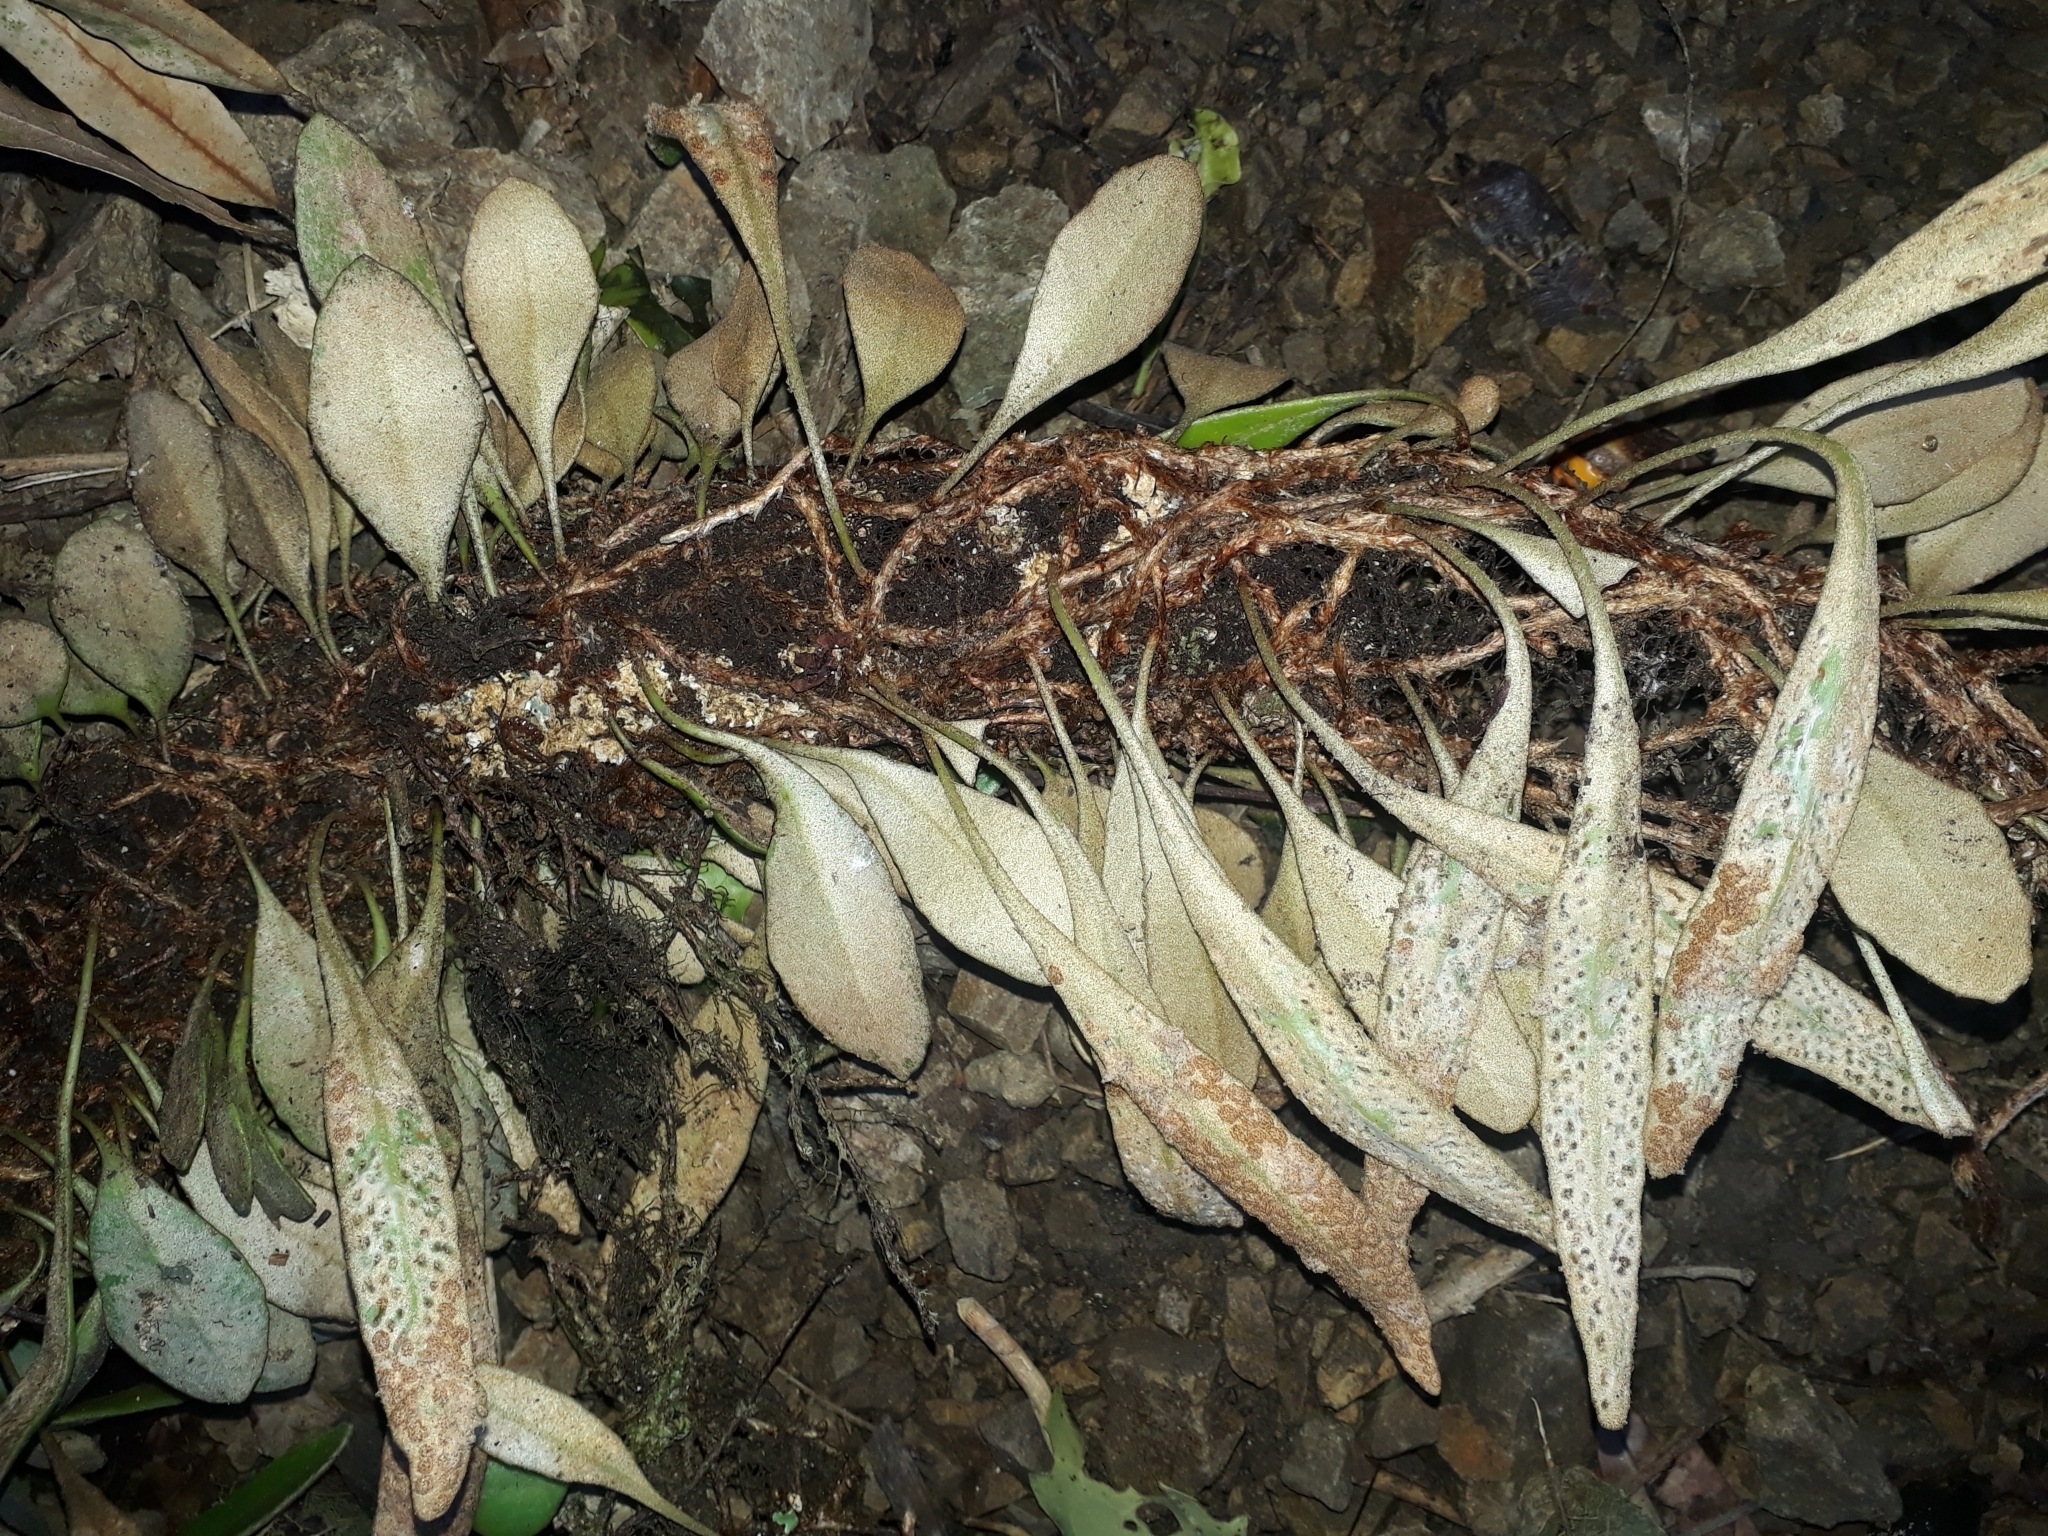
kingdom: Plantae
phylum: Tracheophyta
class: Polypodiopsida
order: Polypodiales
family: Polypodiaceae
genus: Pyrrosia
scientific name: Pyrrosia eleagnifolia
